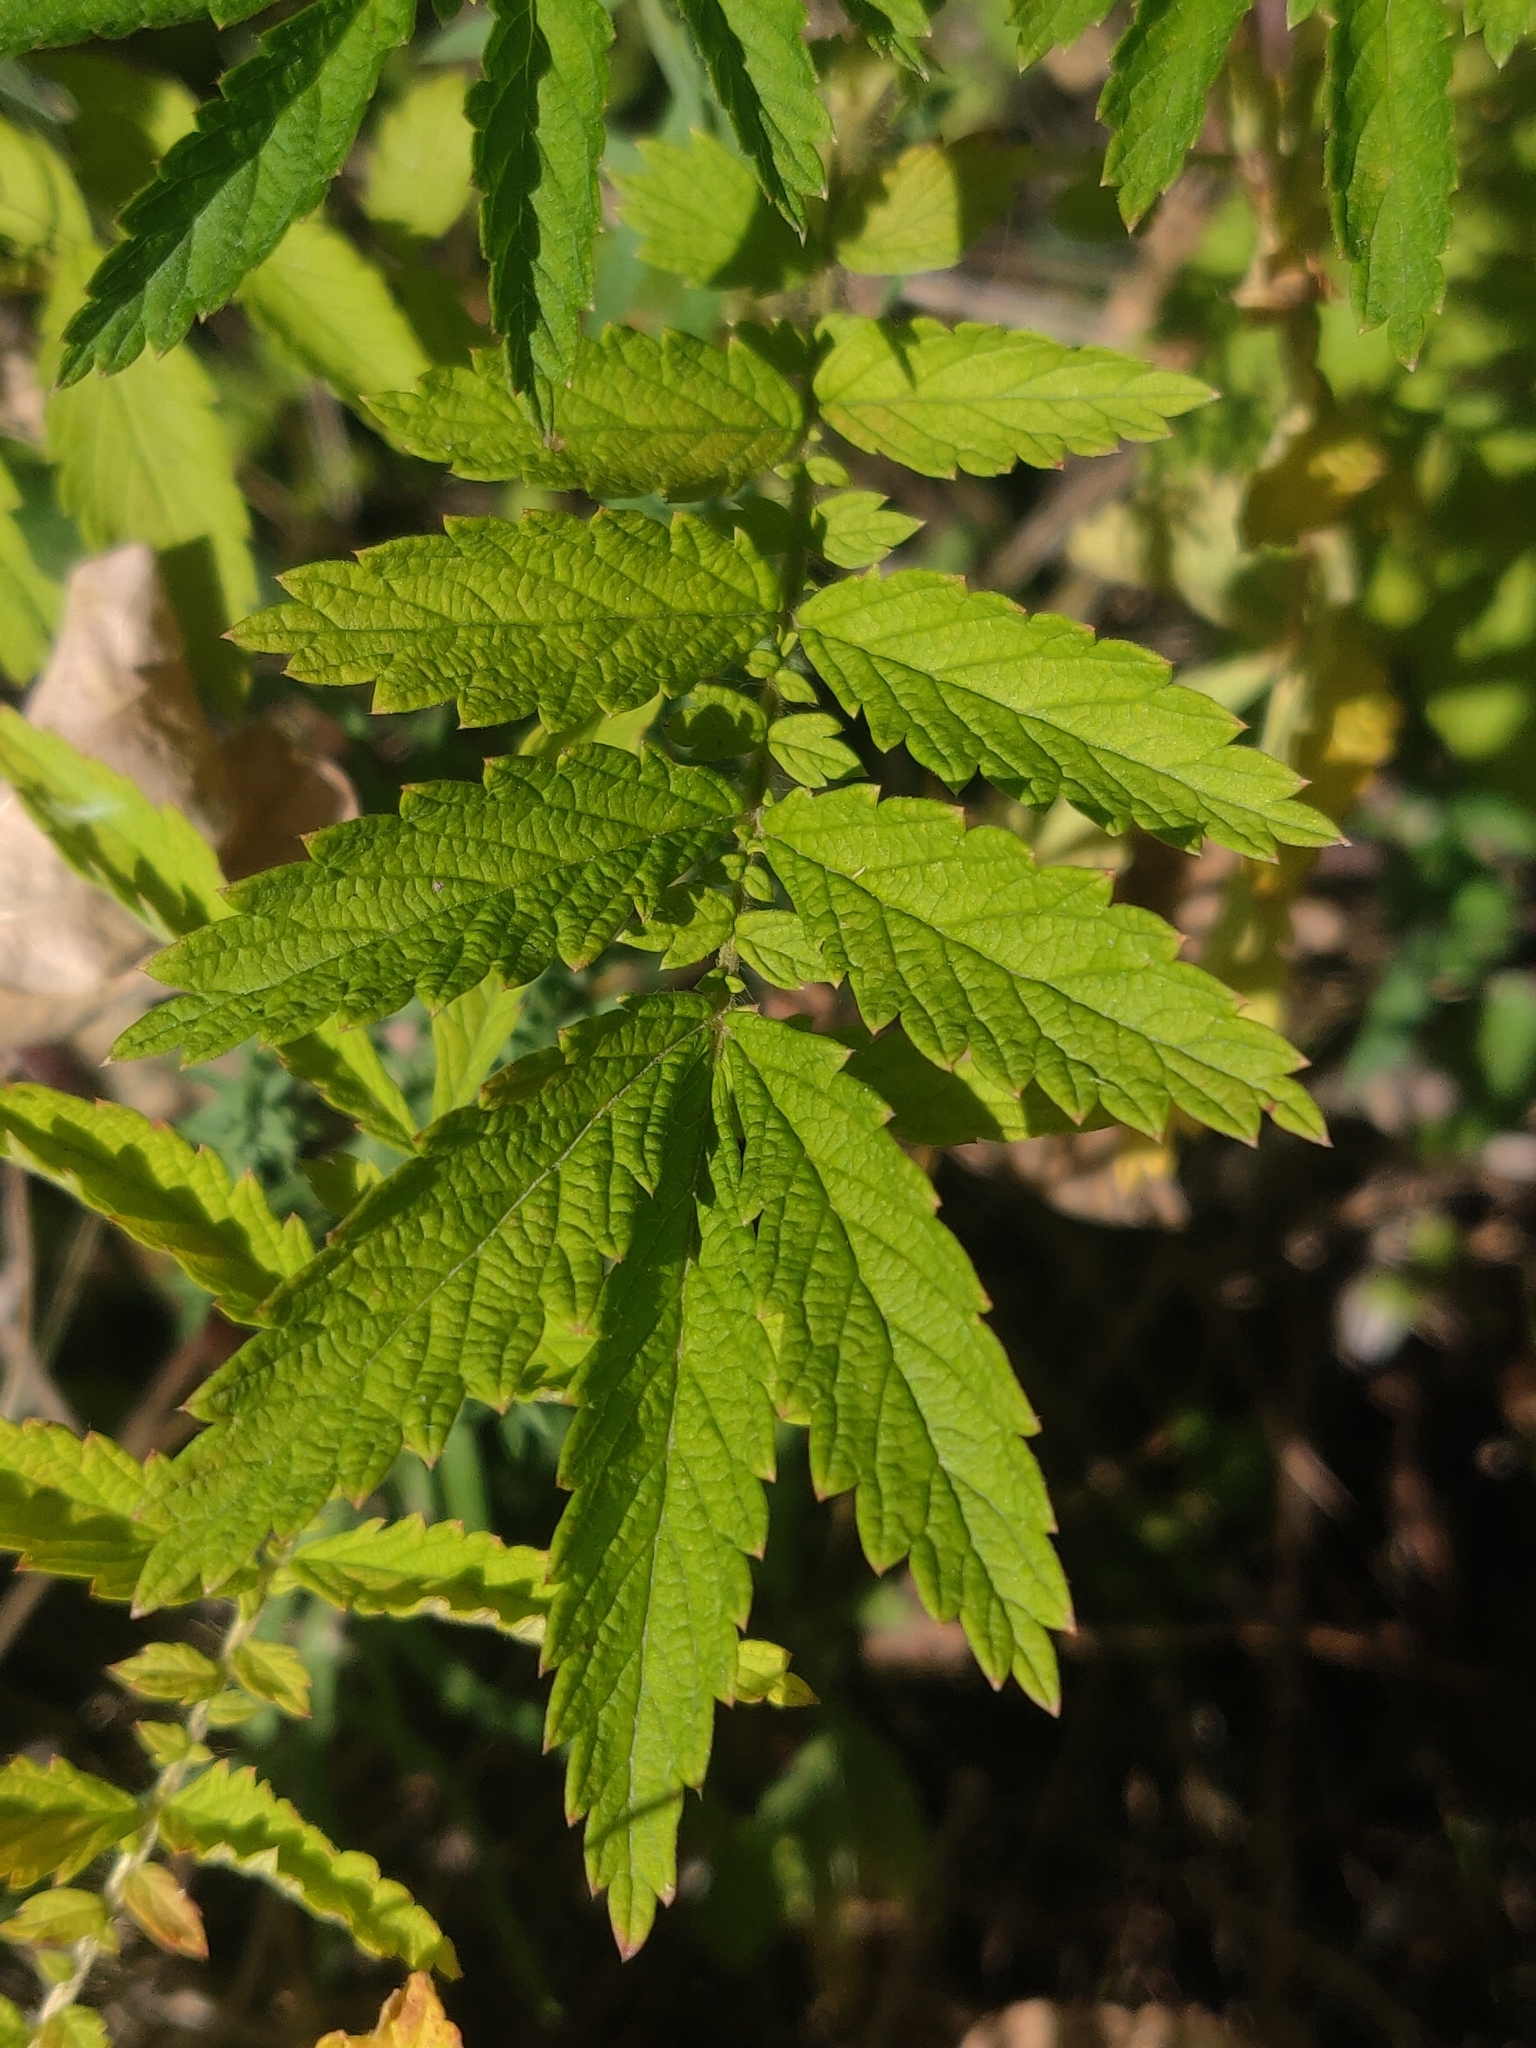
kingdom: Plantae
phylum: Tracheophyta
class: Magnoliopsida
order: Rosales
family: Rosaceae
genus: Agrimonia
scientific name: Agrimonia parviflora
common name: Harvest-lice
